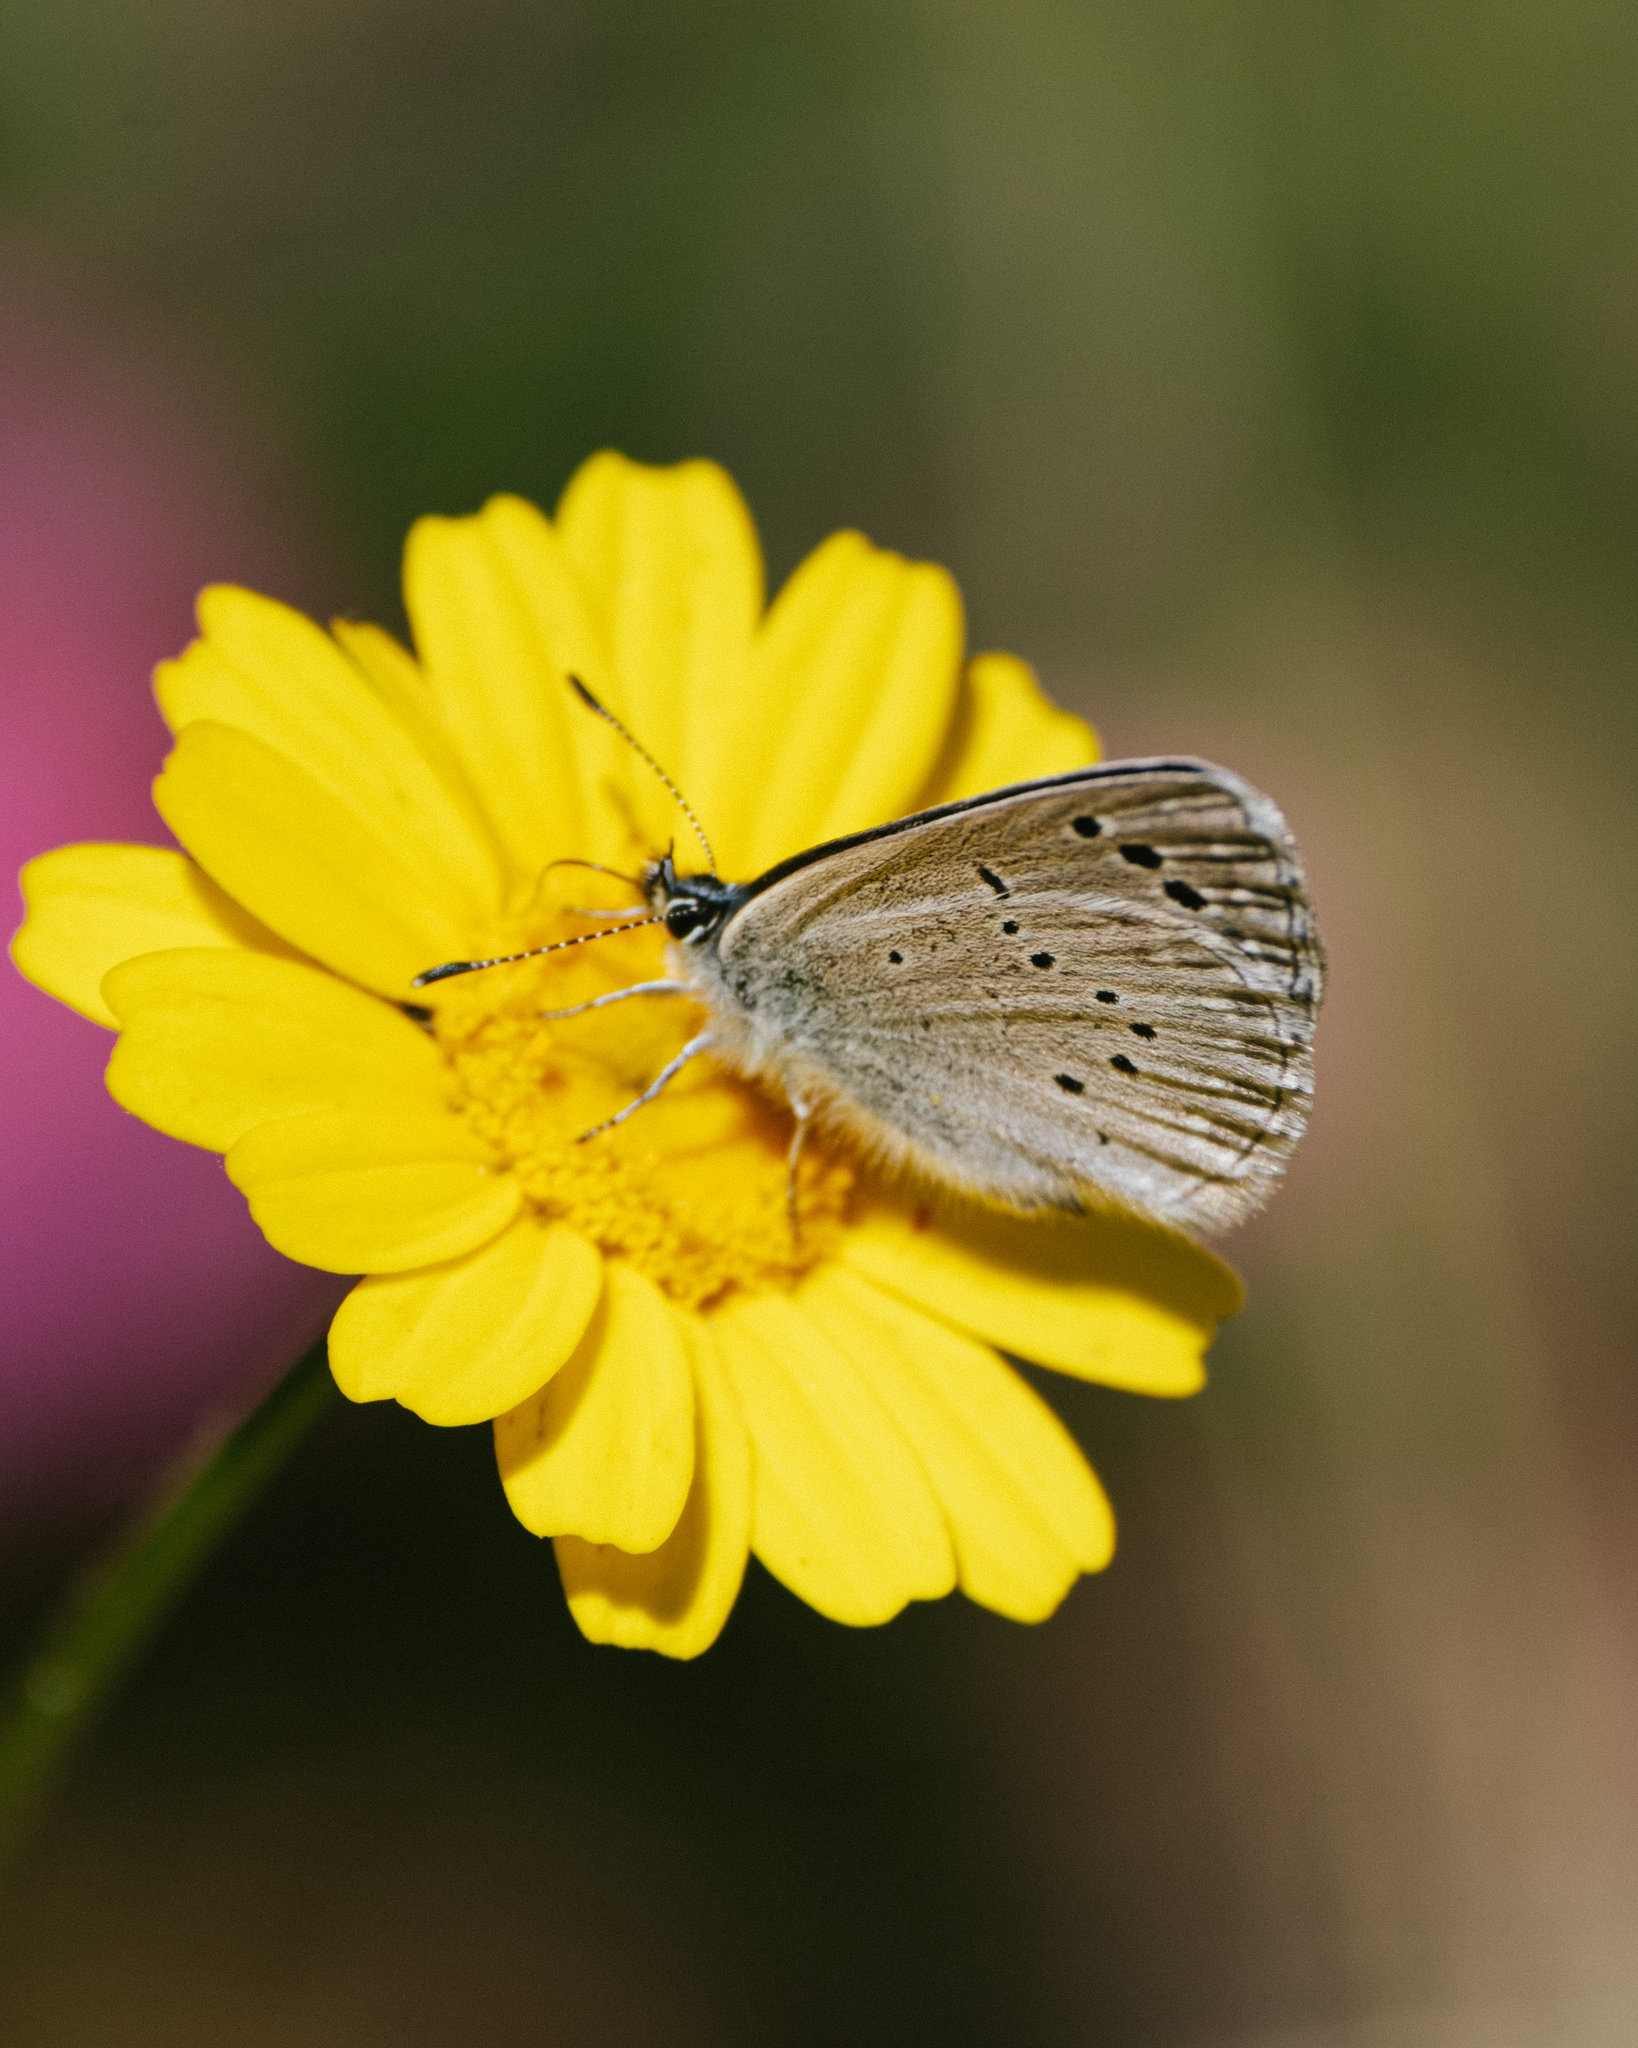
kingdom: Animalia
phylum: Arthropoda
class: Insecta
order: Lepidoptera
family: Lycaenidae
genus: Glaucopsyche
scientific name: Glaucopsyche melanops
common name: Black-eyed blue
